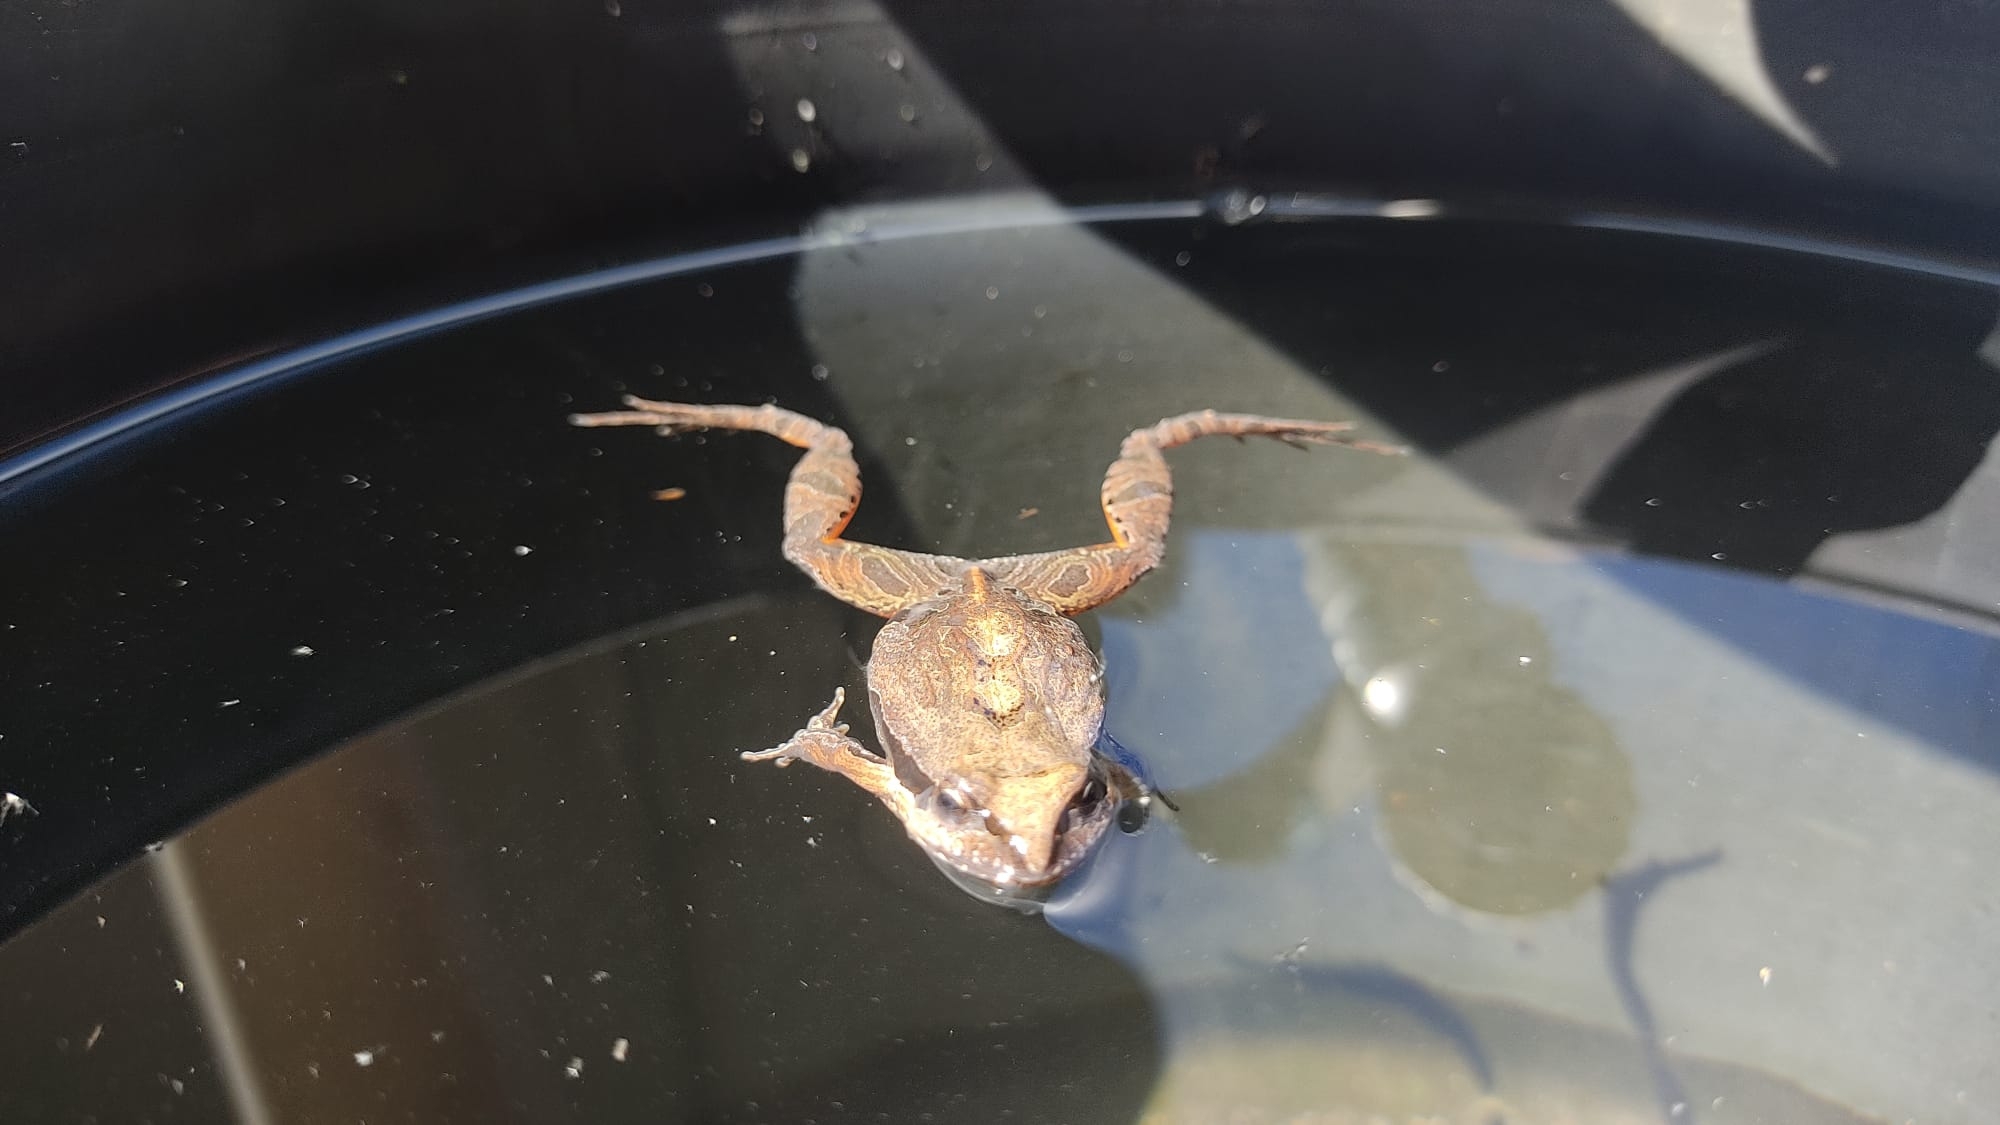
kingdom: Animalia
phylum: Chordata
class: Amphibia
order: Anura
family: Leptodactylidae
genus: Physalaemus
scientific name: Physalaemus gracilis
